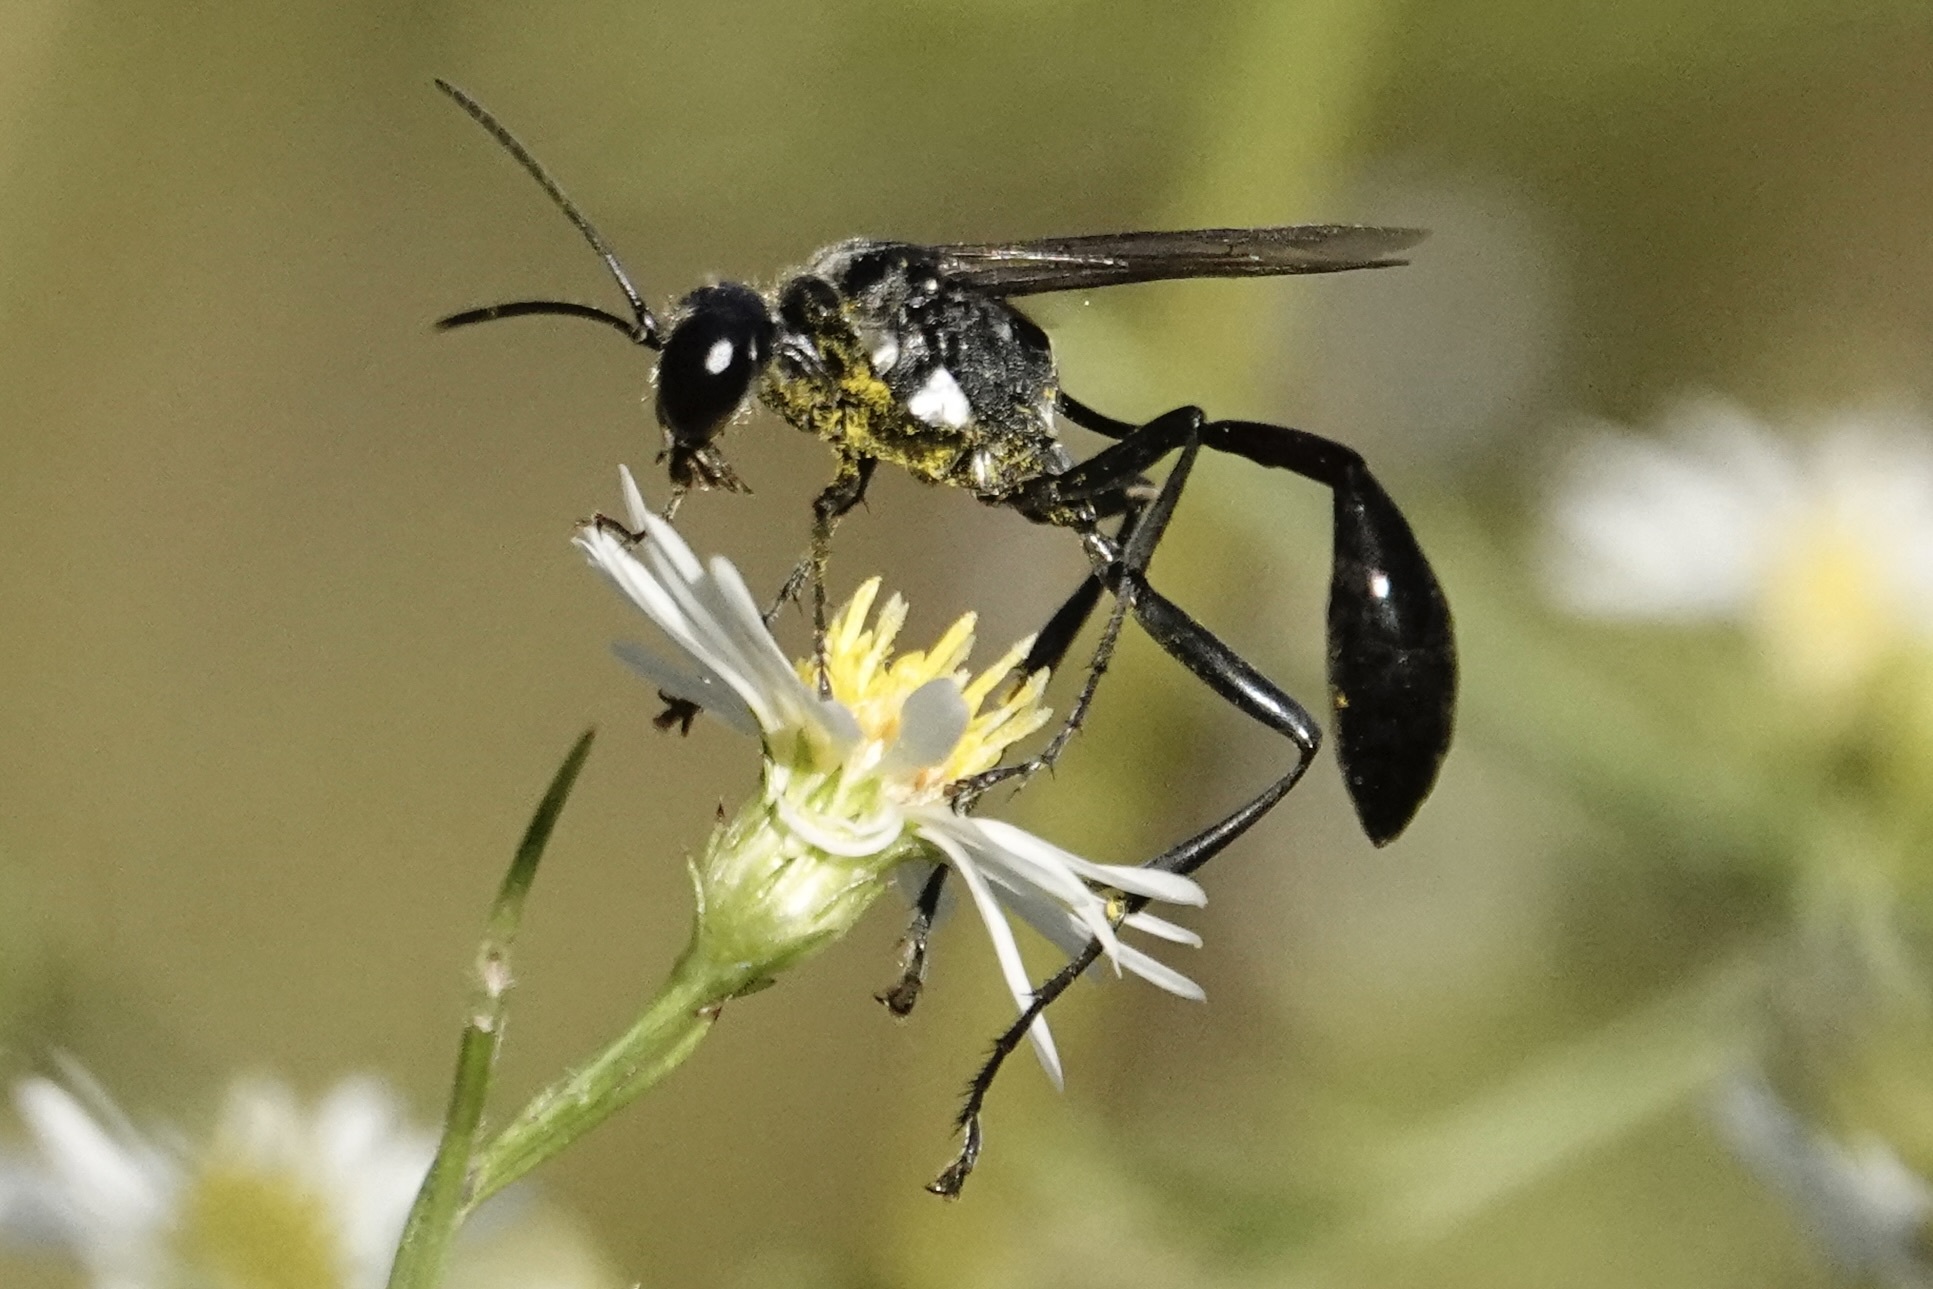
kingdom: Animalia
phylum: Arthropoda
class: Insecta
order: Hymenoptera
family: Sphecidae
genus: Eremnophila
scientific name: Eremnophila aureonotata
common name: Gold-marked thread-waisted wasp
